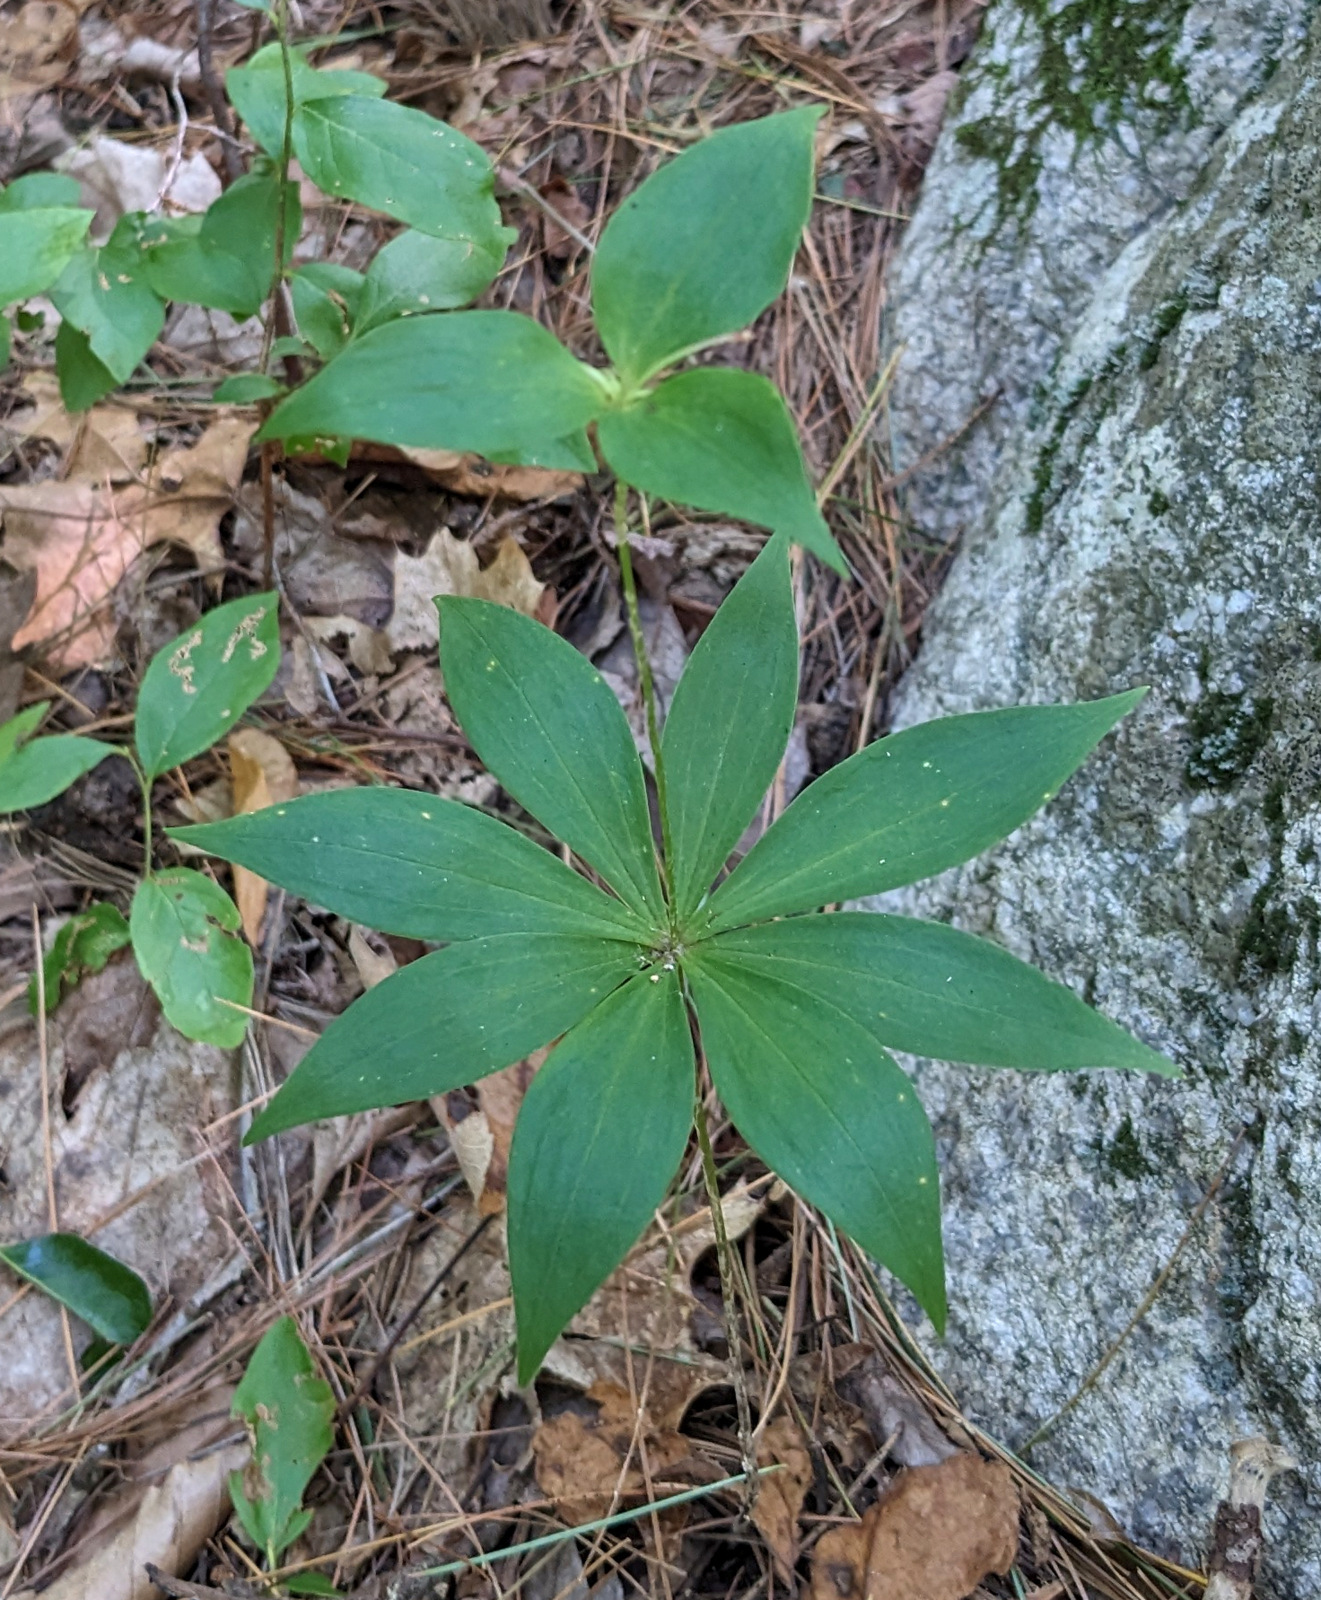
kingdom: Plantae
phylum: Tracheophyta
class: Liliopsida
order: Liliales
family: Liliaceae
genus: Medeola
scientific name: Medeola virginiana
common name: Indian cucumber-root
